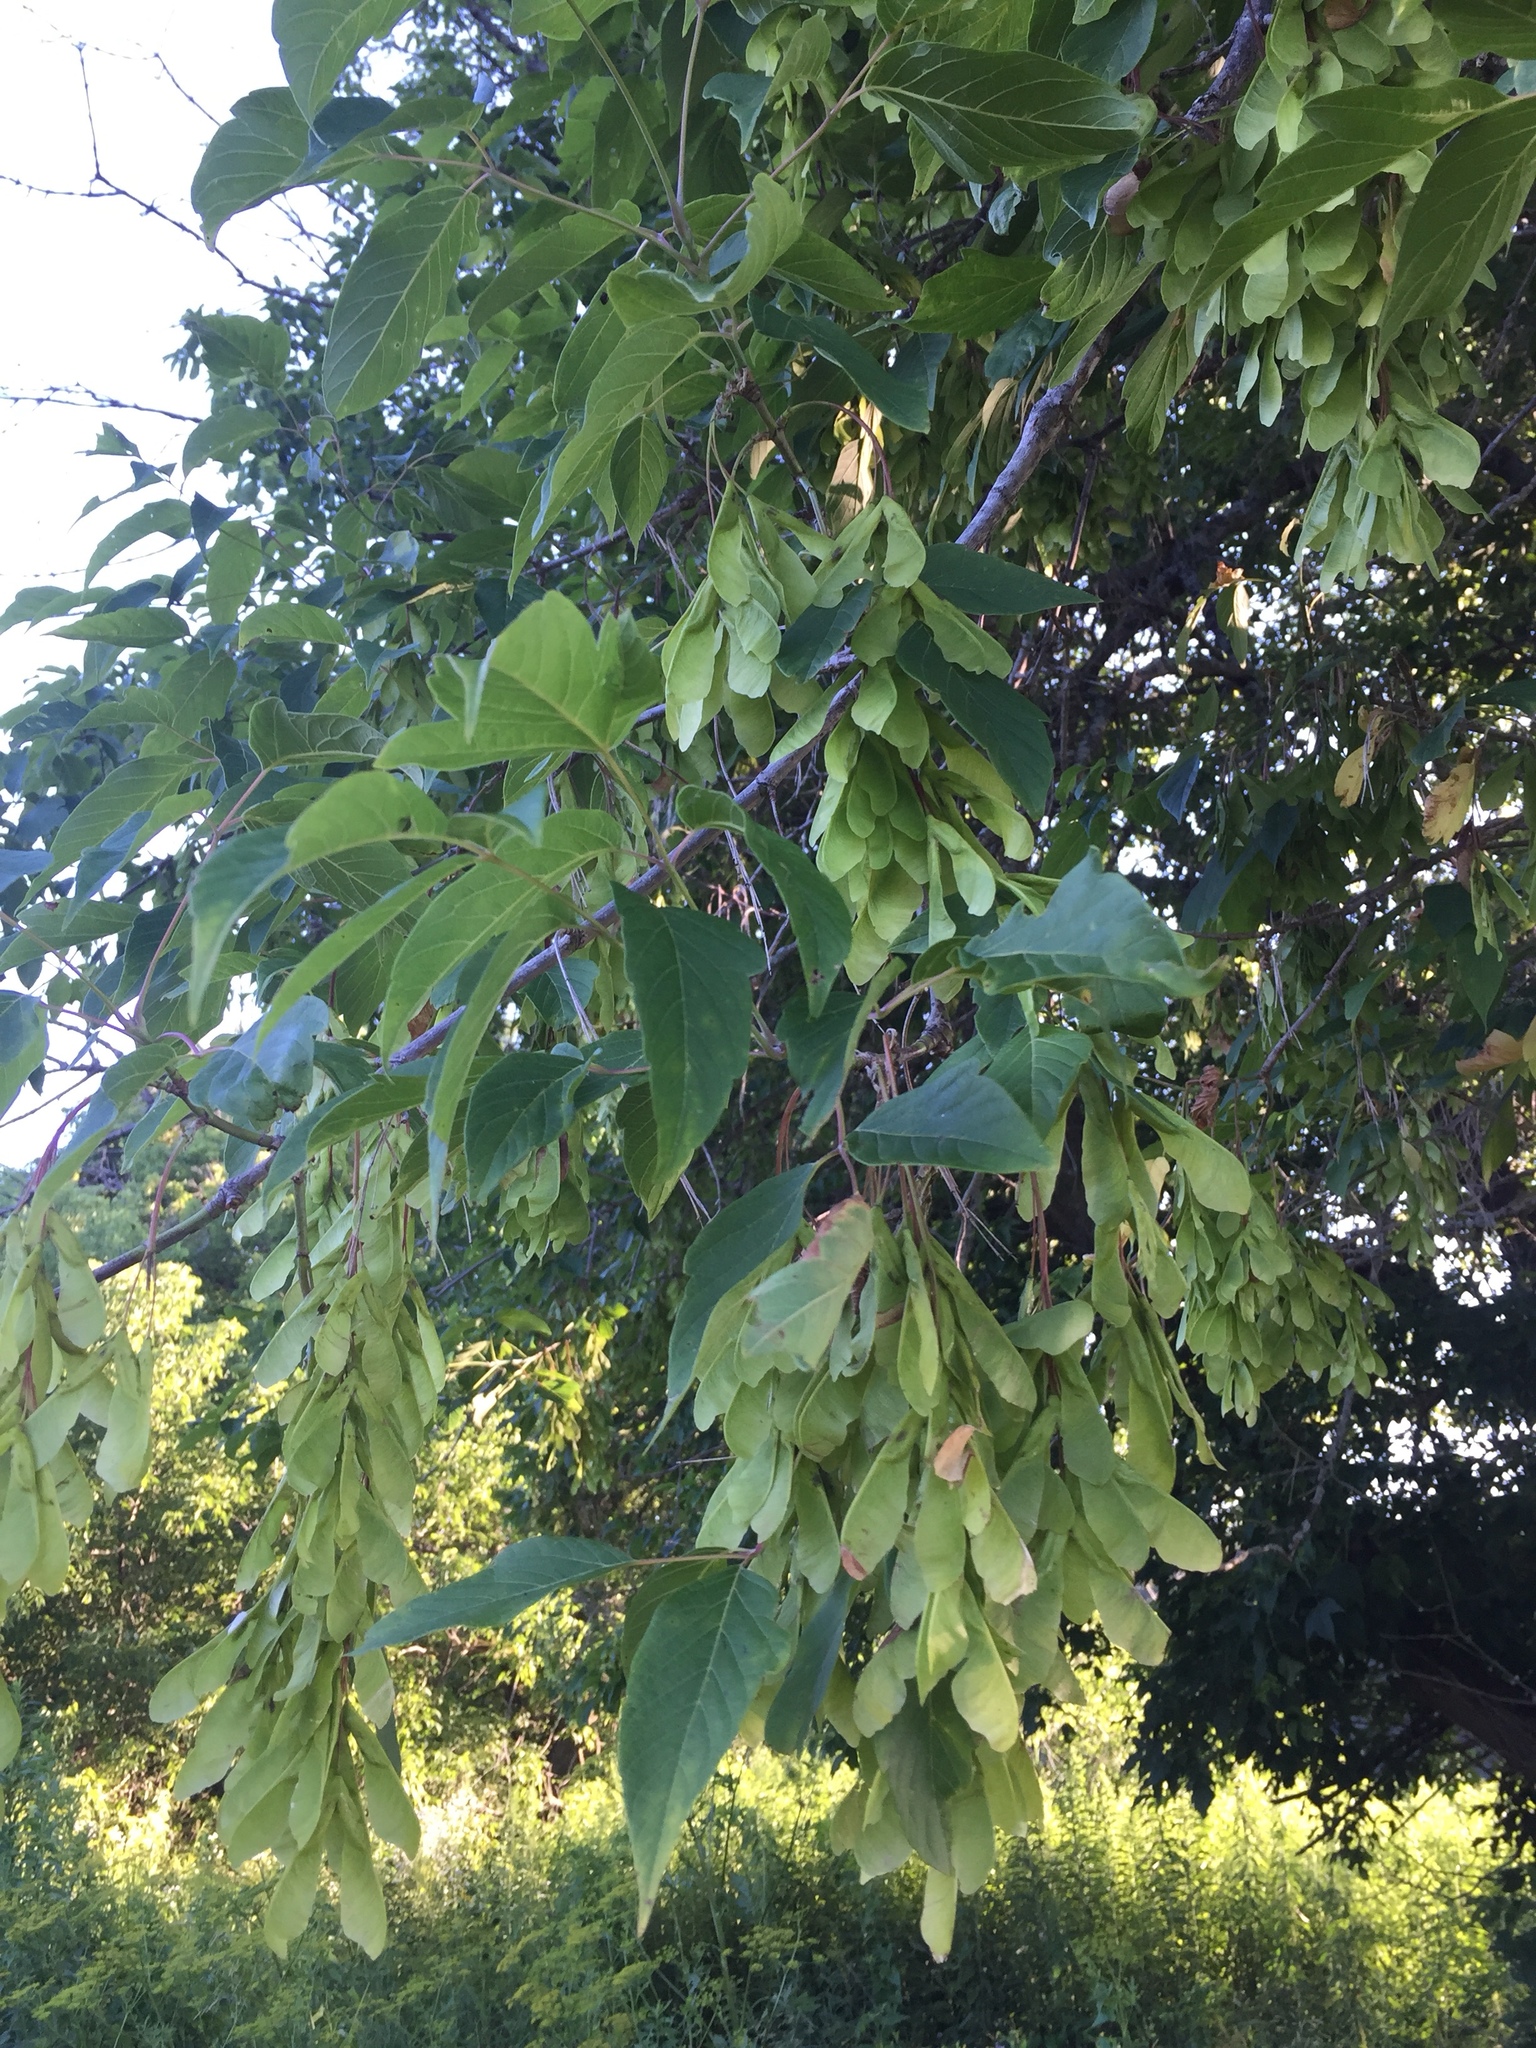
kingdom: Plantae
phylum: Tracheophyta
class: Magnoliopsida
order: Sapindales
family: Sapindaceae
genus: Acer
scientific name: Acer negundo
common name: Ashleaf maple
